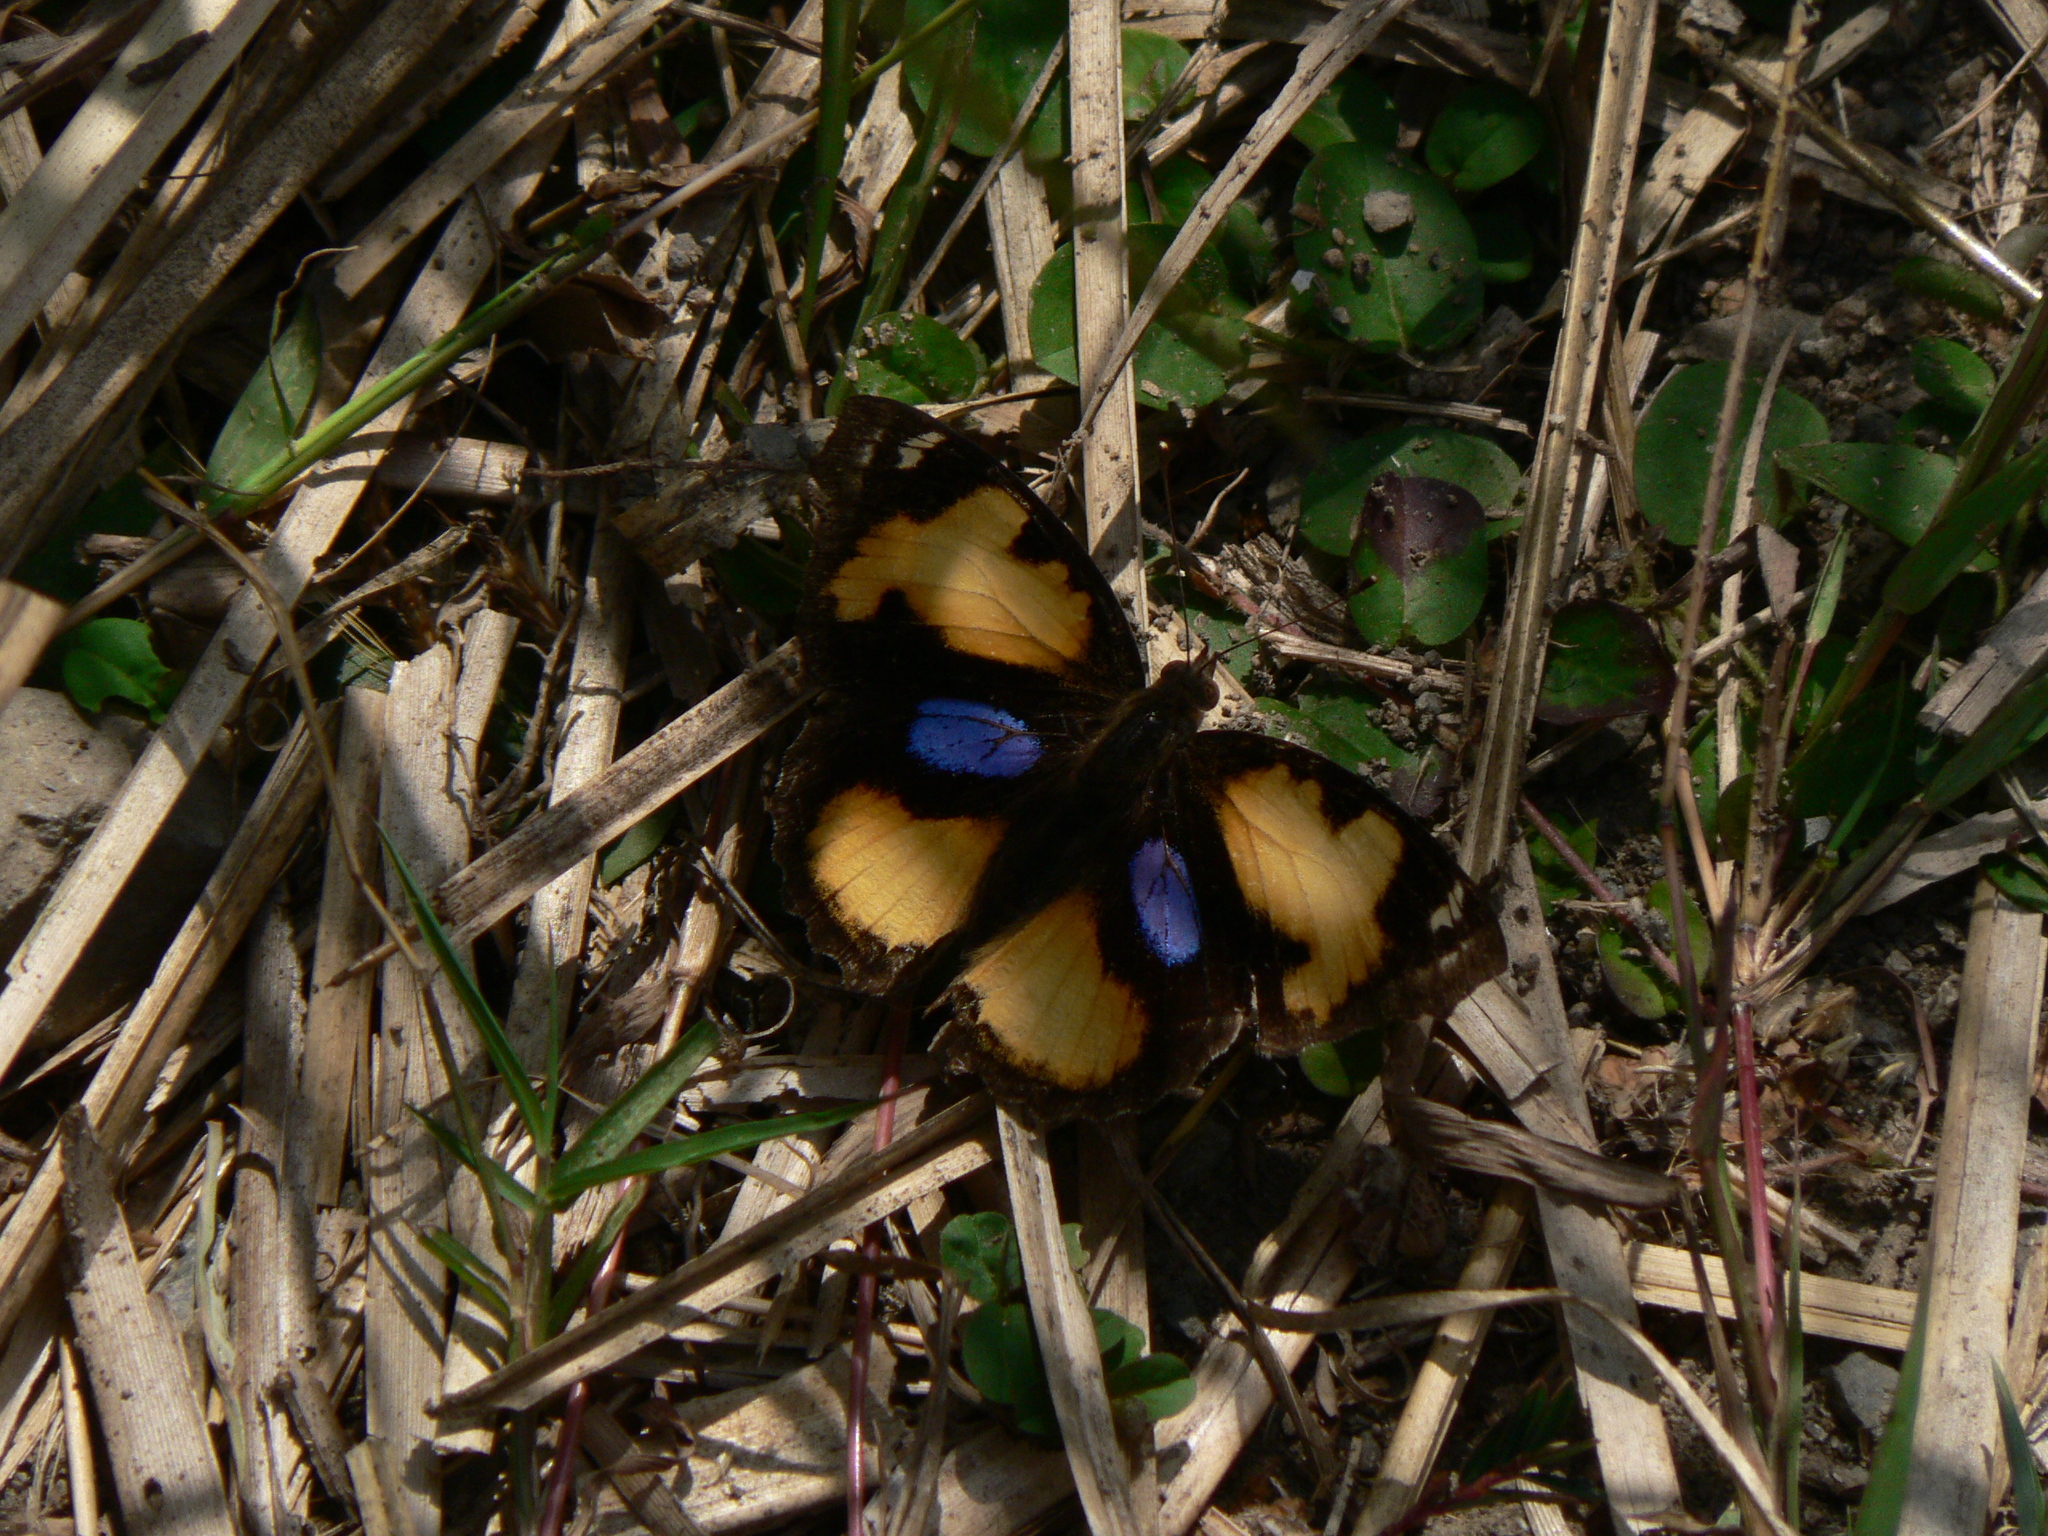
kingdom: Animalia
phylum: Arthropoda
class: Insecta
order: Lepidoptera
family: Nymphalidae
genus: Junonia
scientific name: Junonia hierta
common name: Yellow pansy
